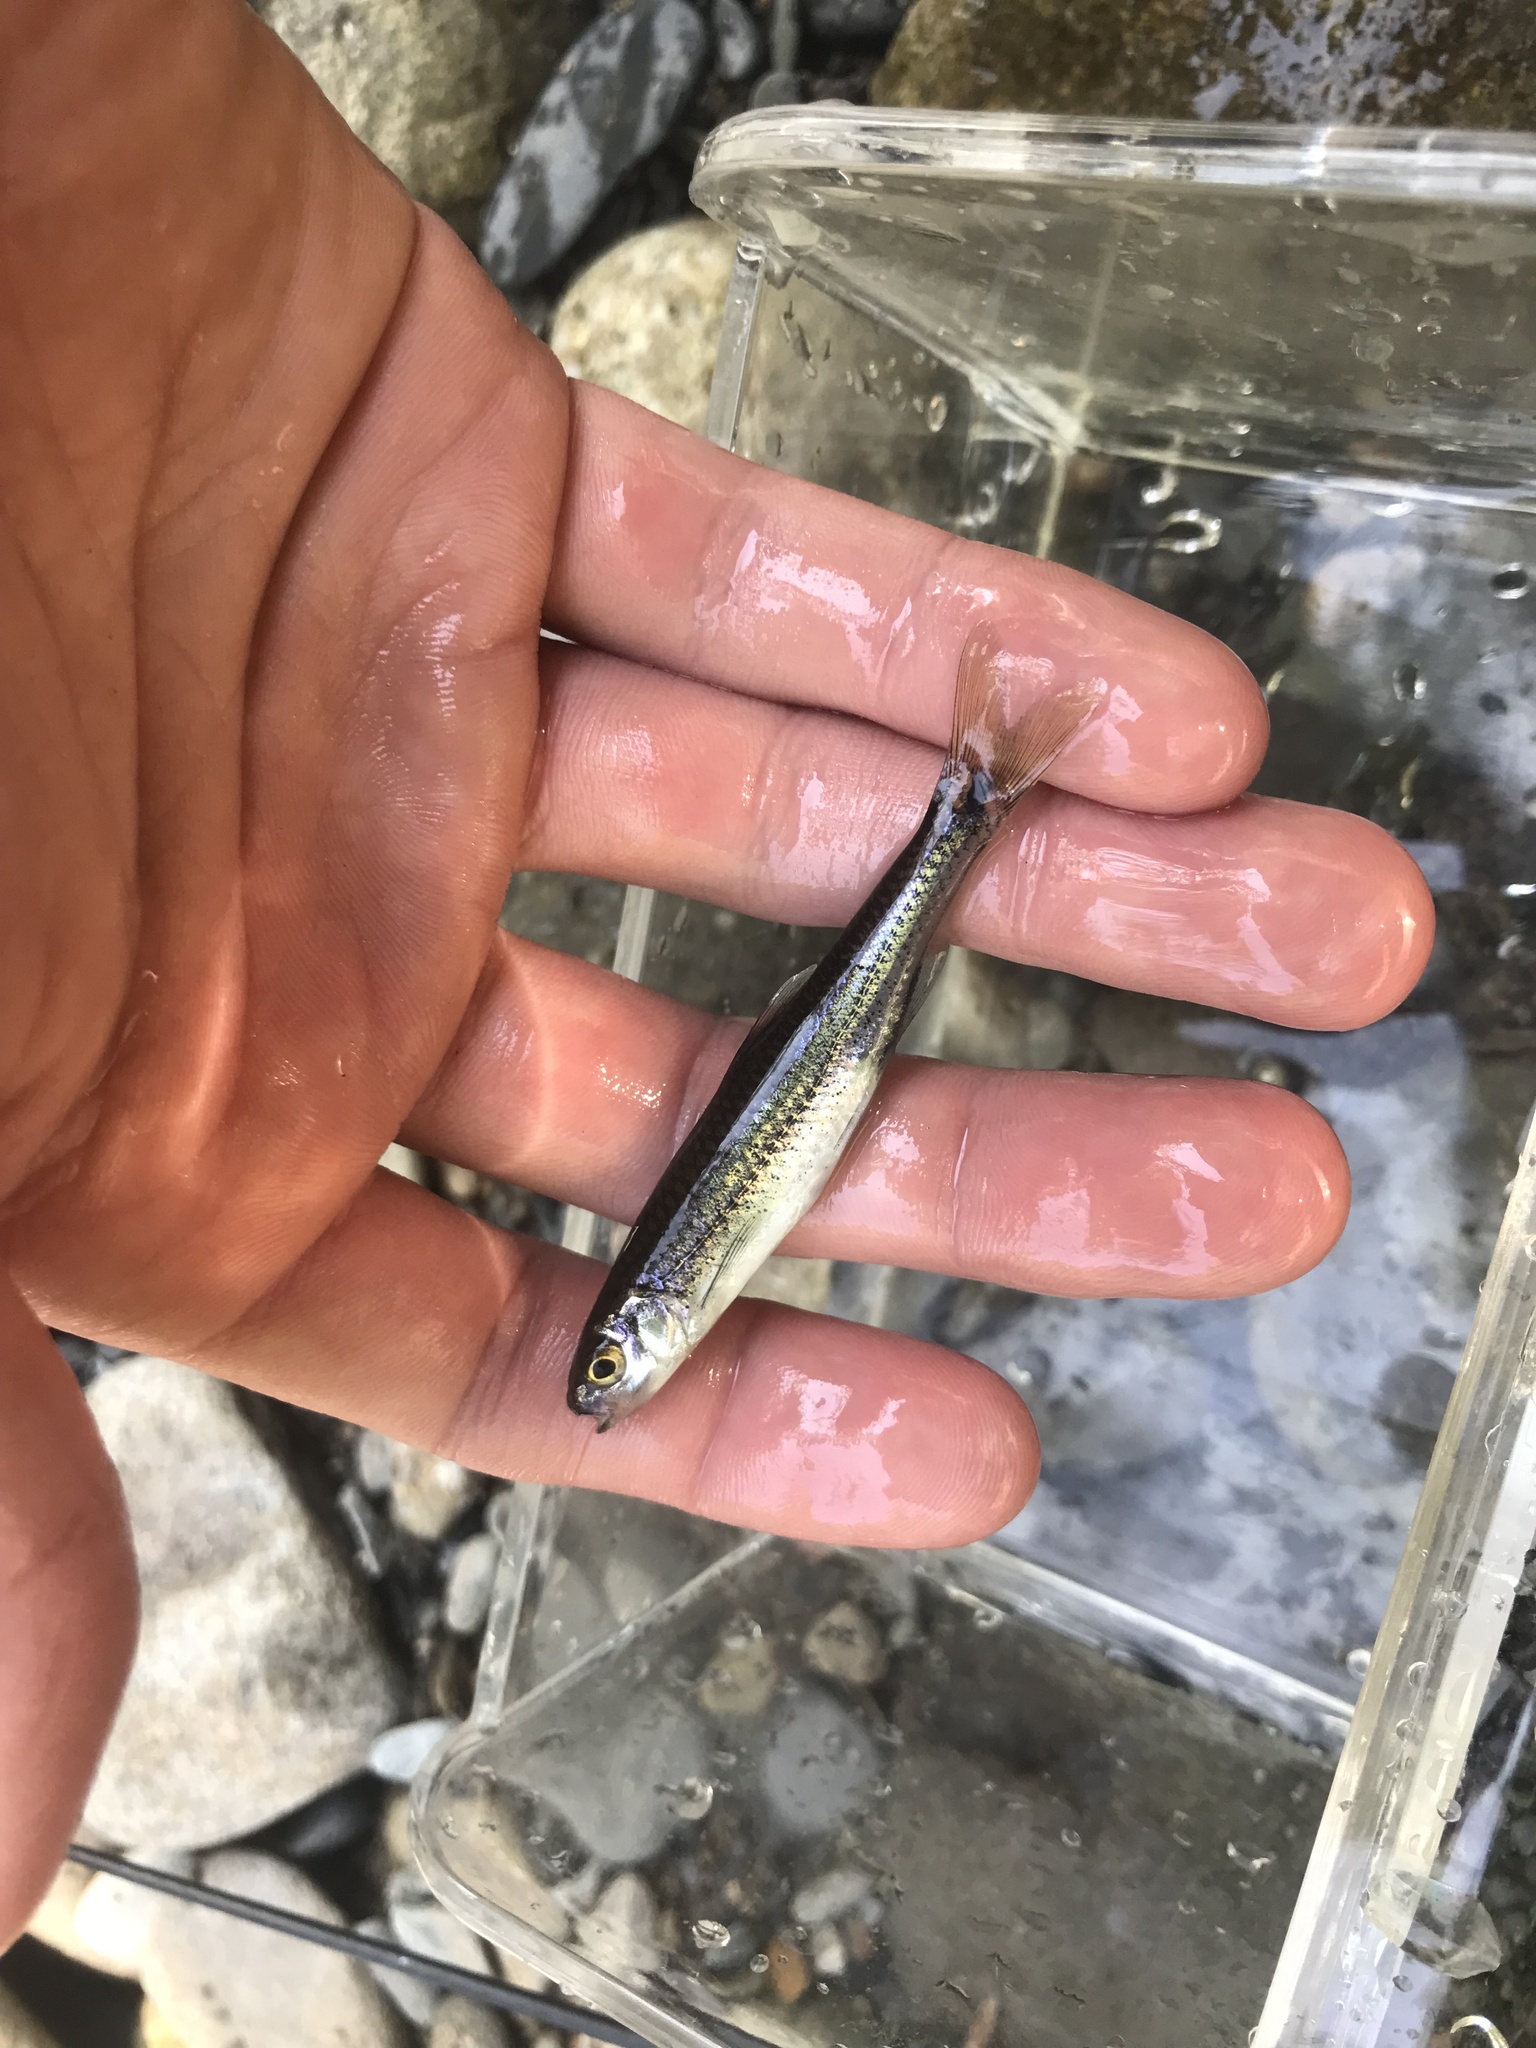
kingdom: Animalia
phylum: Chordata
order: Cypriniformes
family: Cyprinidae
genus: Notropis
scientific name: Notropis
